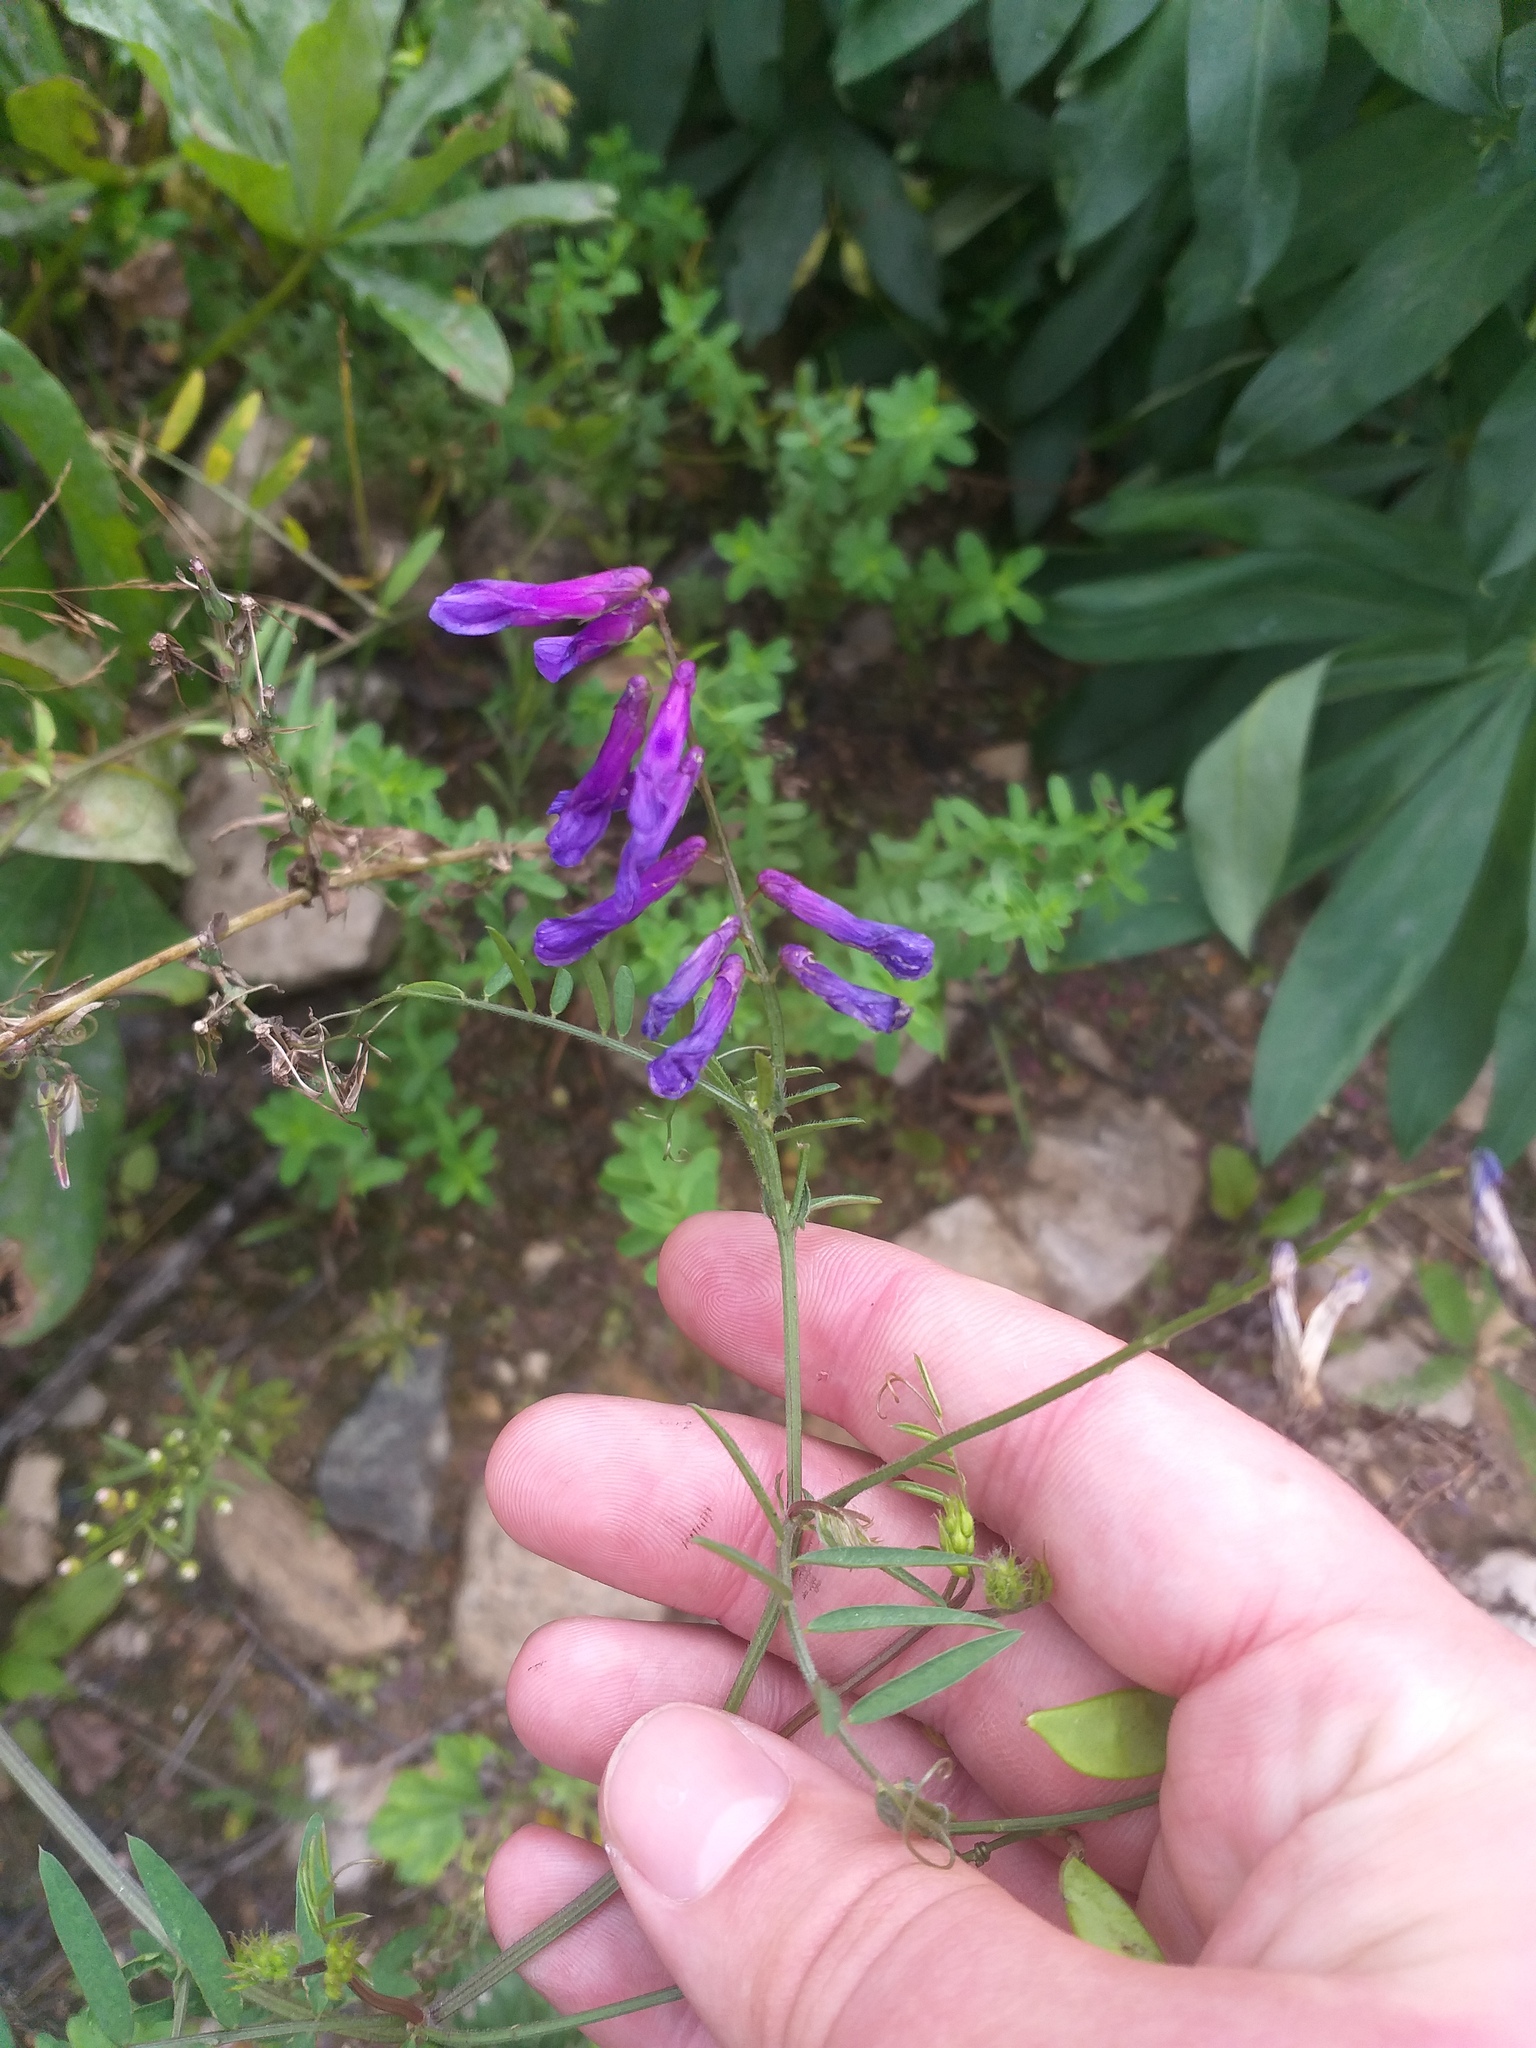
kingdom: Plantae
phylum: Tracheophyta
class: Magnoliopsida
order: Fabales
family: Fabaceae
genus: Vicia
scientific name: Vicia villosa
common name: Fodder vetch
